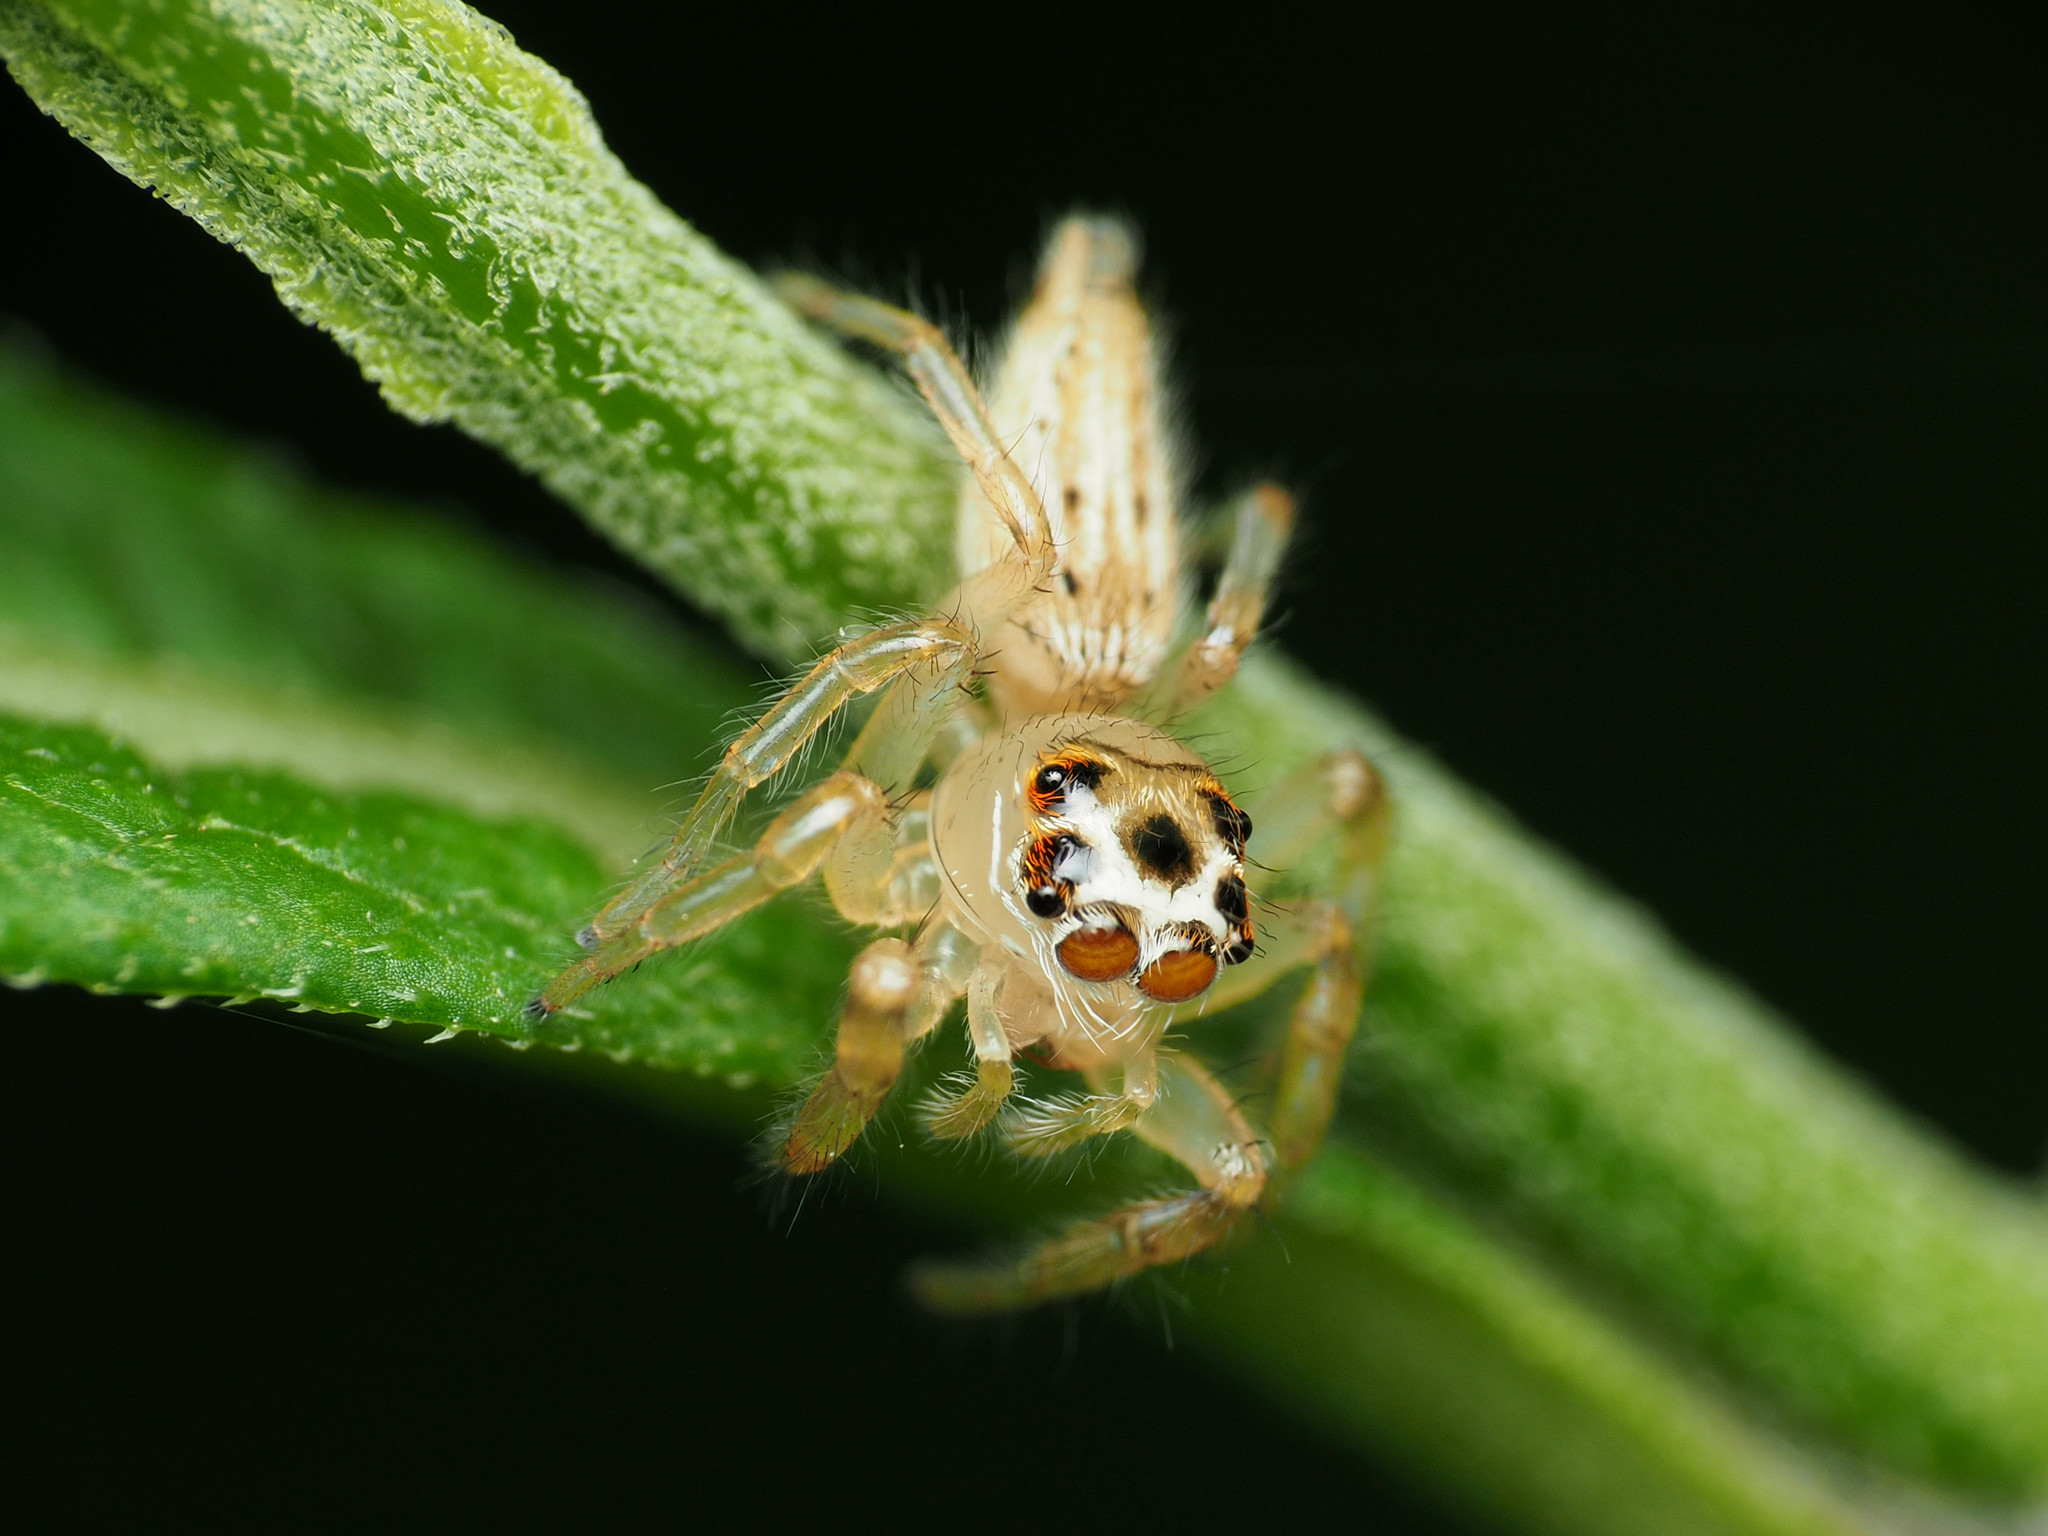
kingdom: Animalia
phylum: Arthropoda
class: Arachnida
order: Araneae
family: Salticidae
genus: Colonus
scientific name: Colonus sylvanus
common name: Jumping spiders
